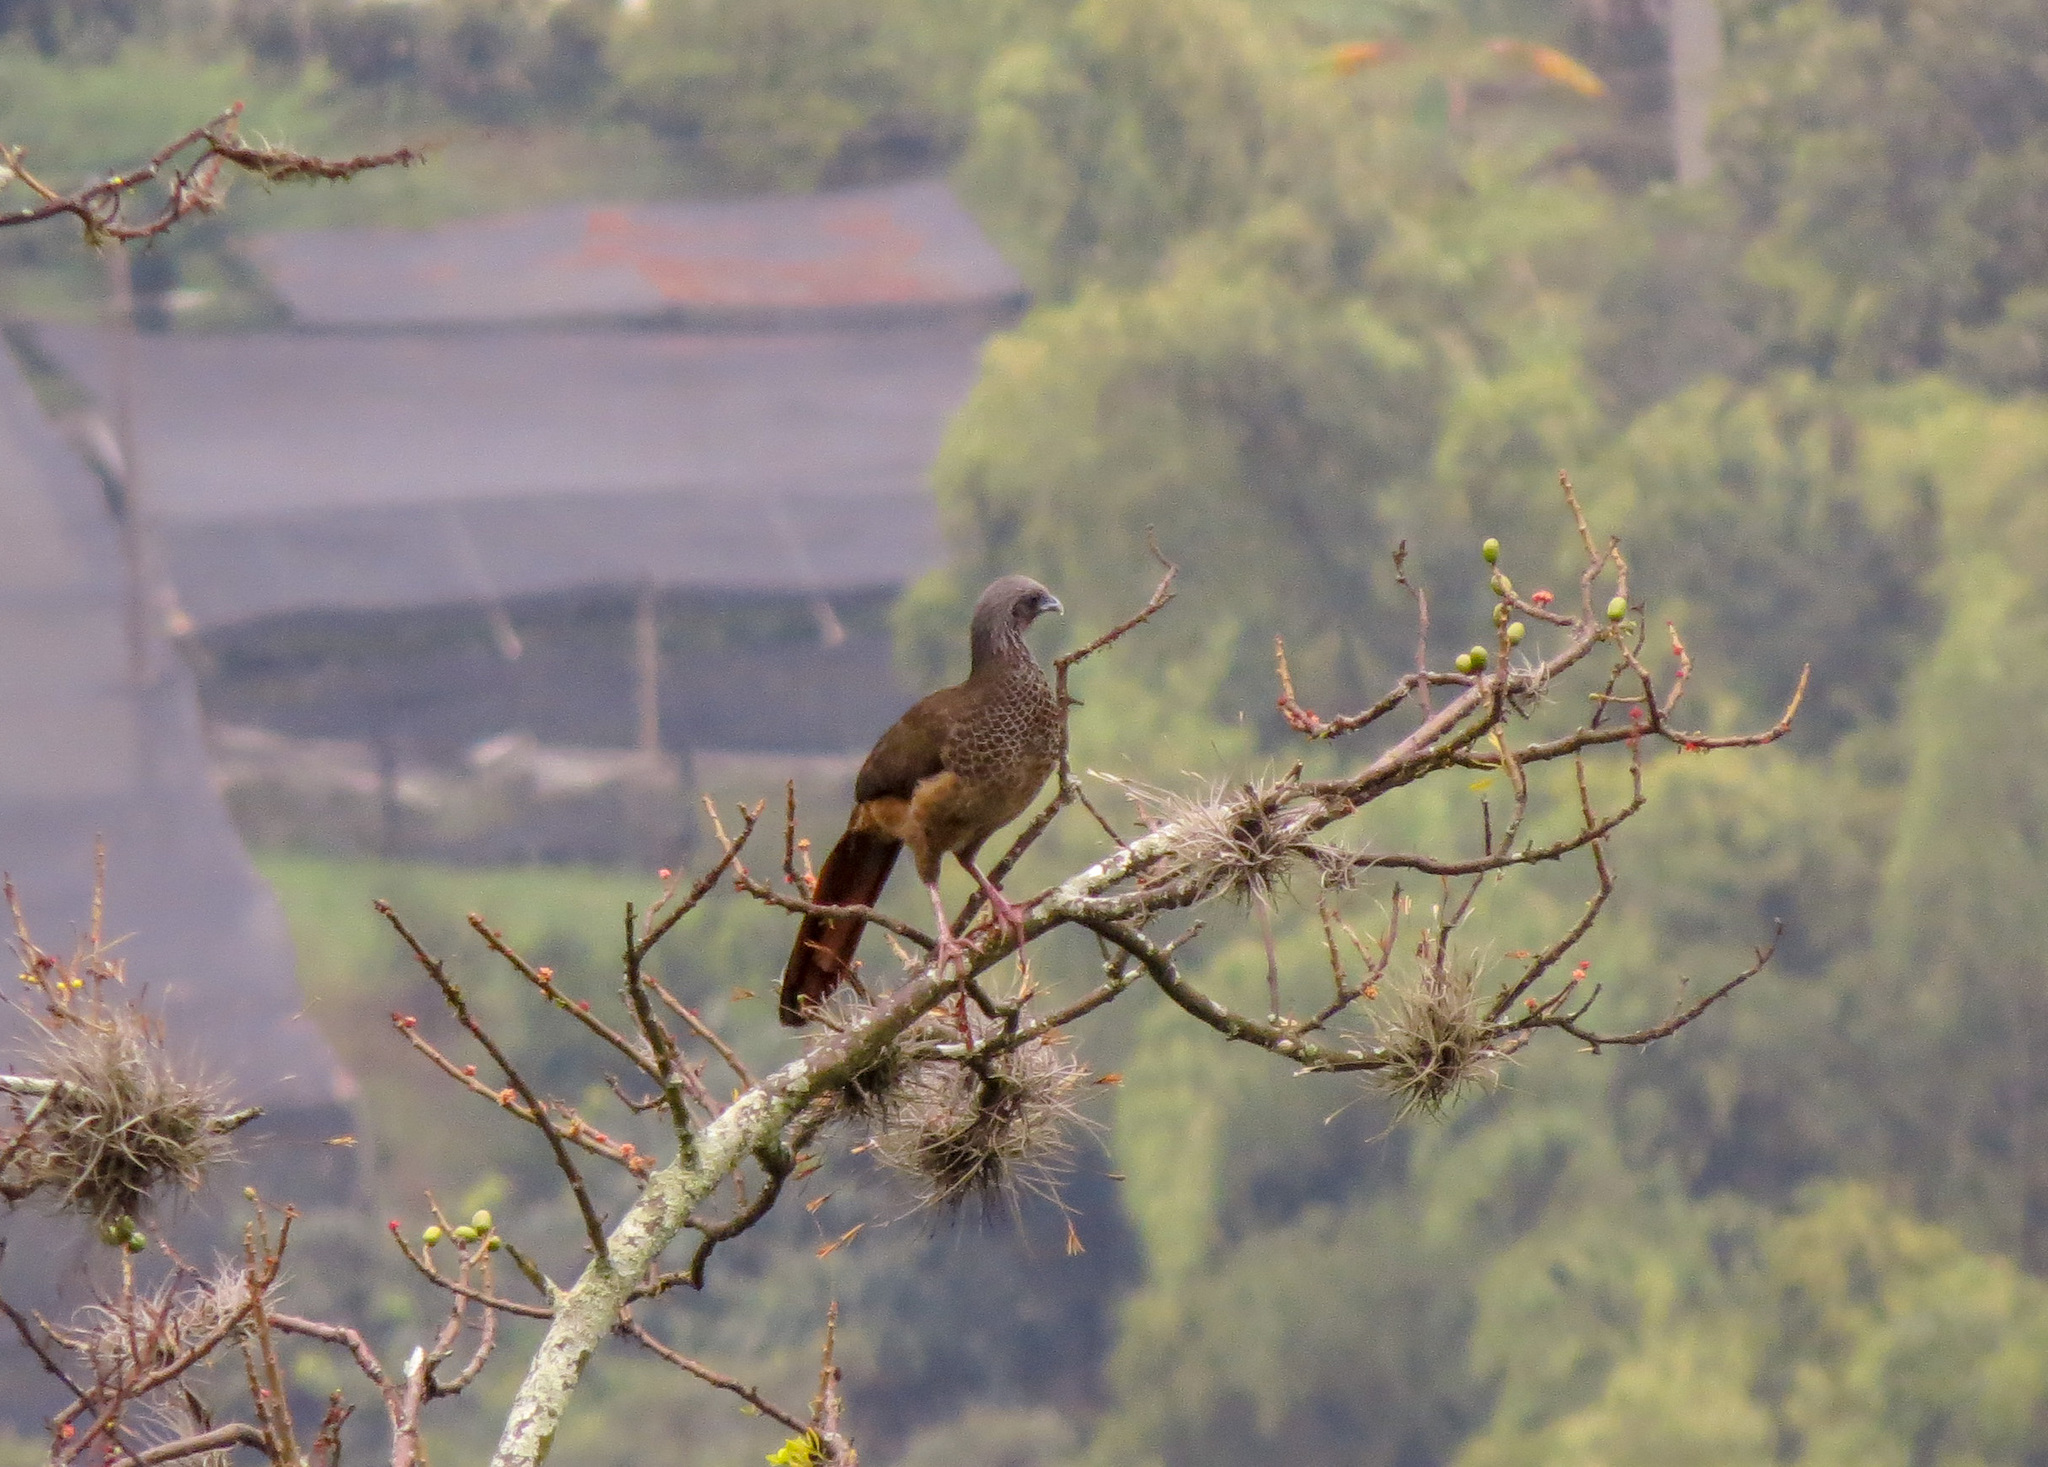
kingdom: Animalia
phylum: Chordata
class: Aves
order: Galliformes
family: Cracidae
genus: Ortalis
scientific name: Ortalis columbiana
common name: Colombian chachalaca
